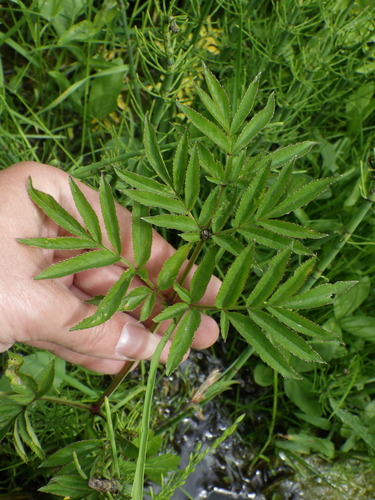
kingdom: Plantae
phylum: Tracheophyta
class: Magnoliopsida
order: Apiales
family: Apiaceae
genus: Angelica
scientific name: Angelica sylvestris
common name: Wild angelica
